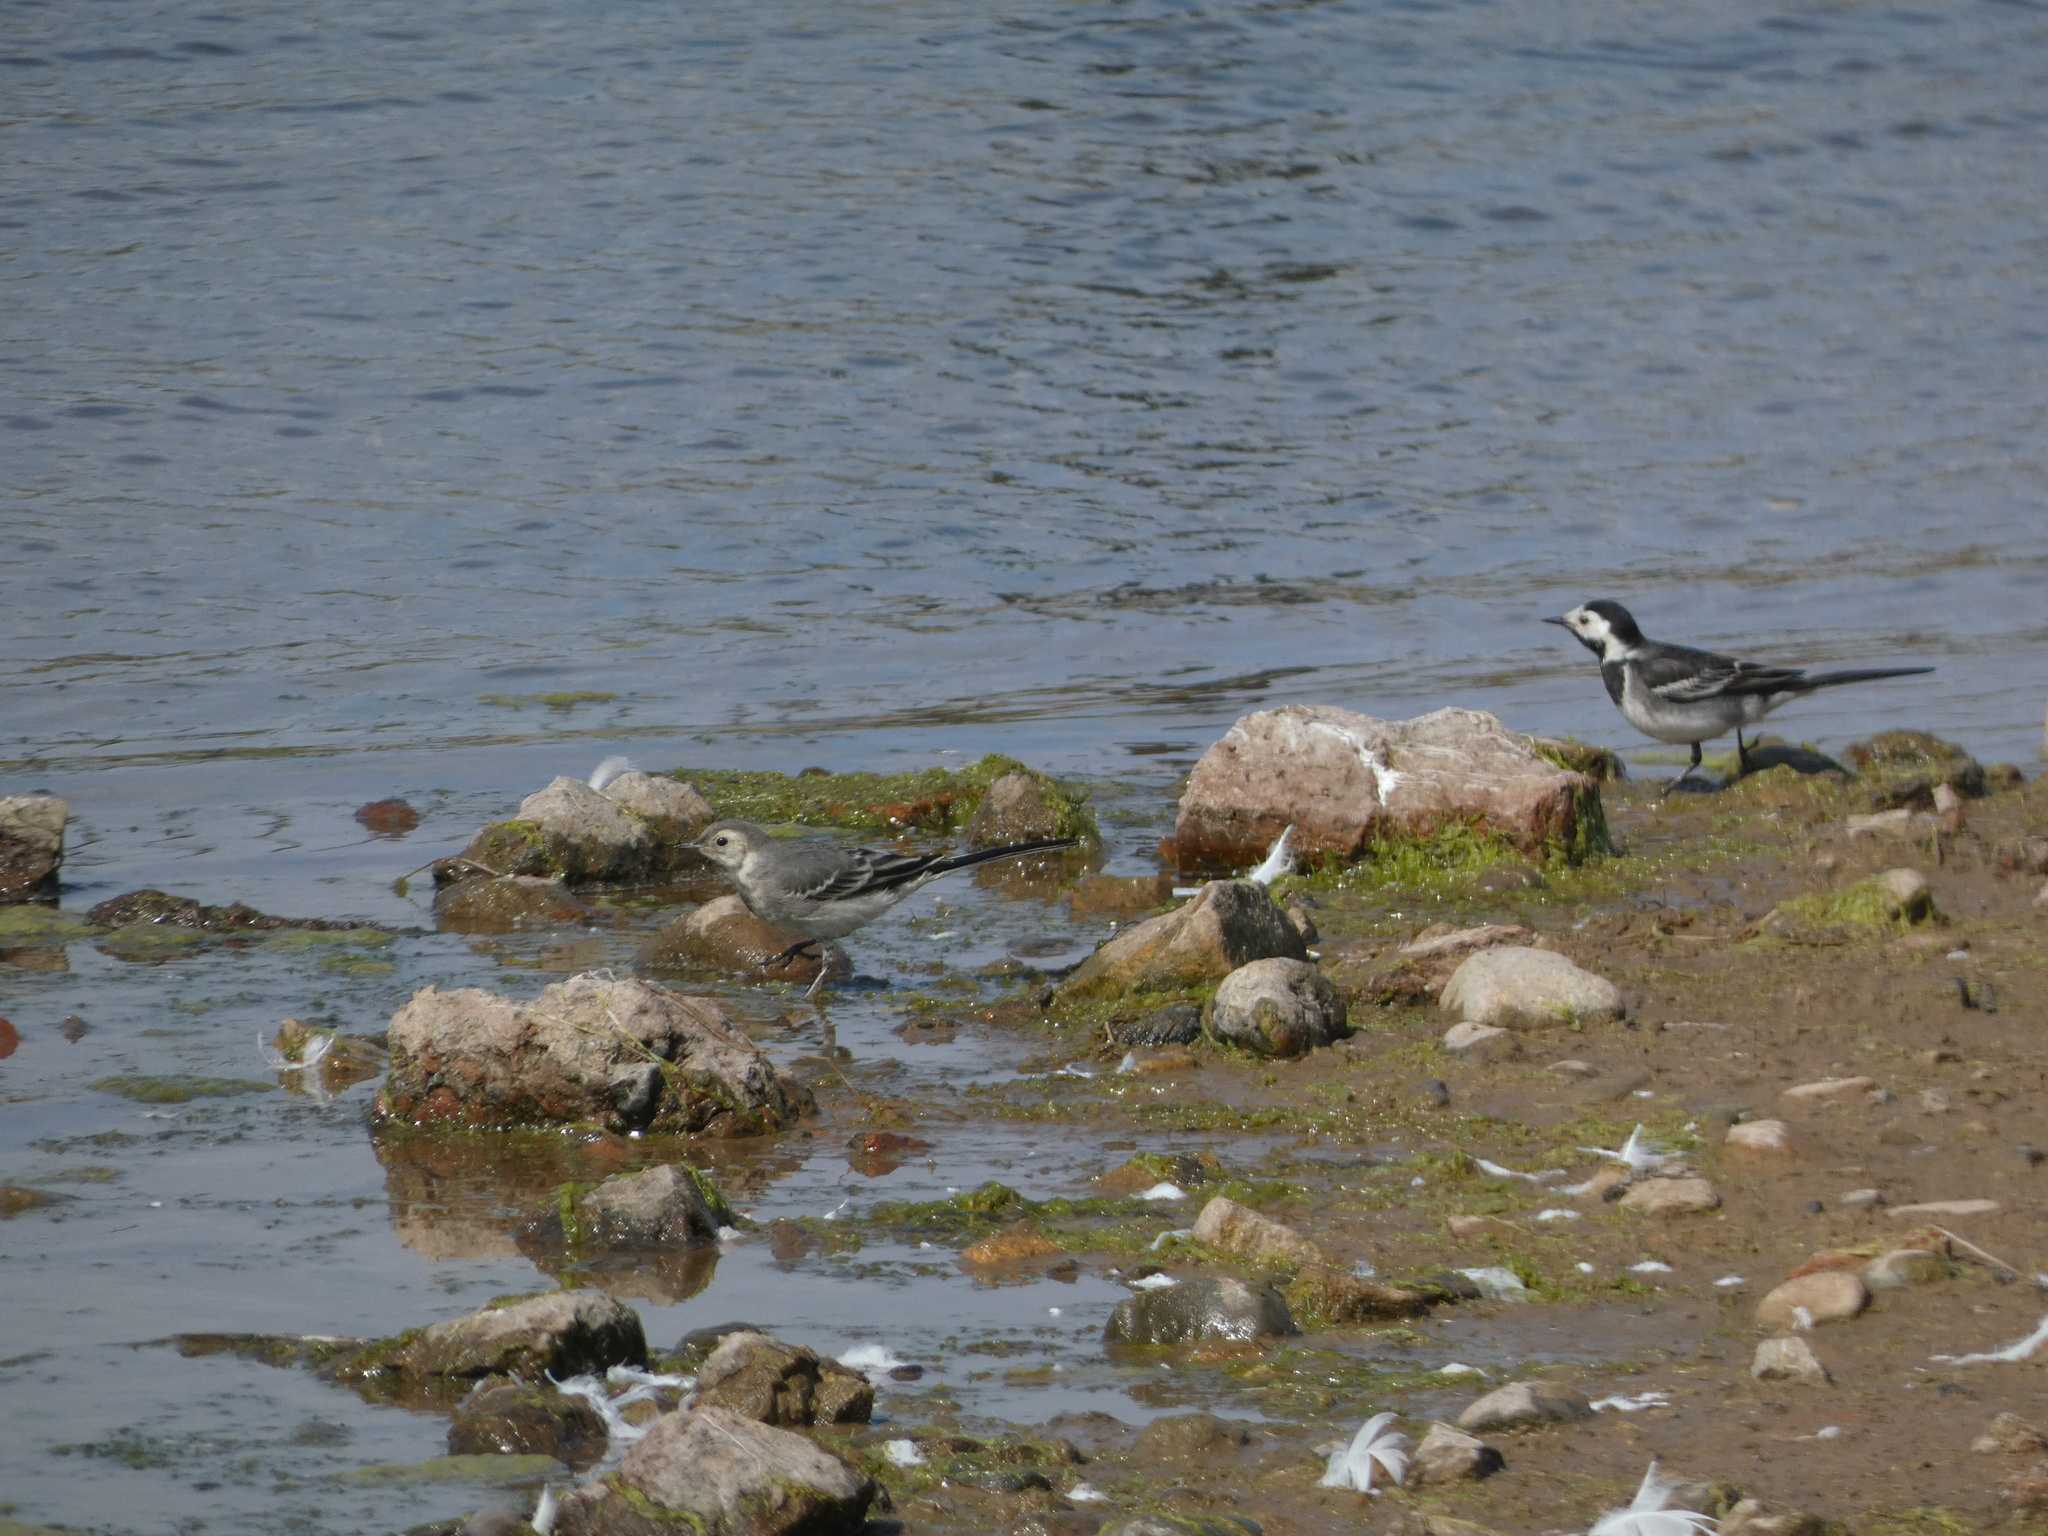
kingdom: Animalia
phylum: Chordata
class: Aves
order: Passeriformes
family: Motacillidae
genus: Motacilla
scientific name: Motacilla alba
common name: White wagtail
